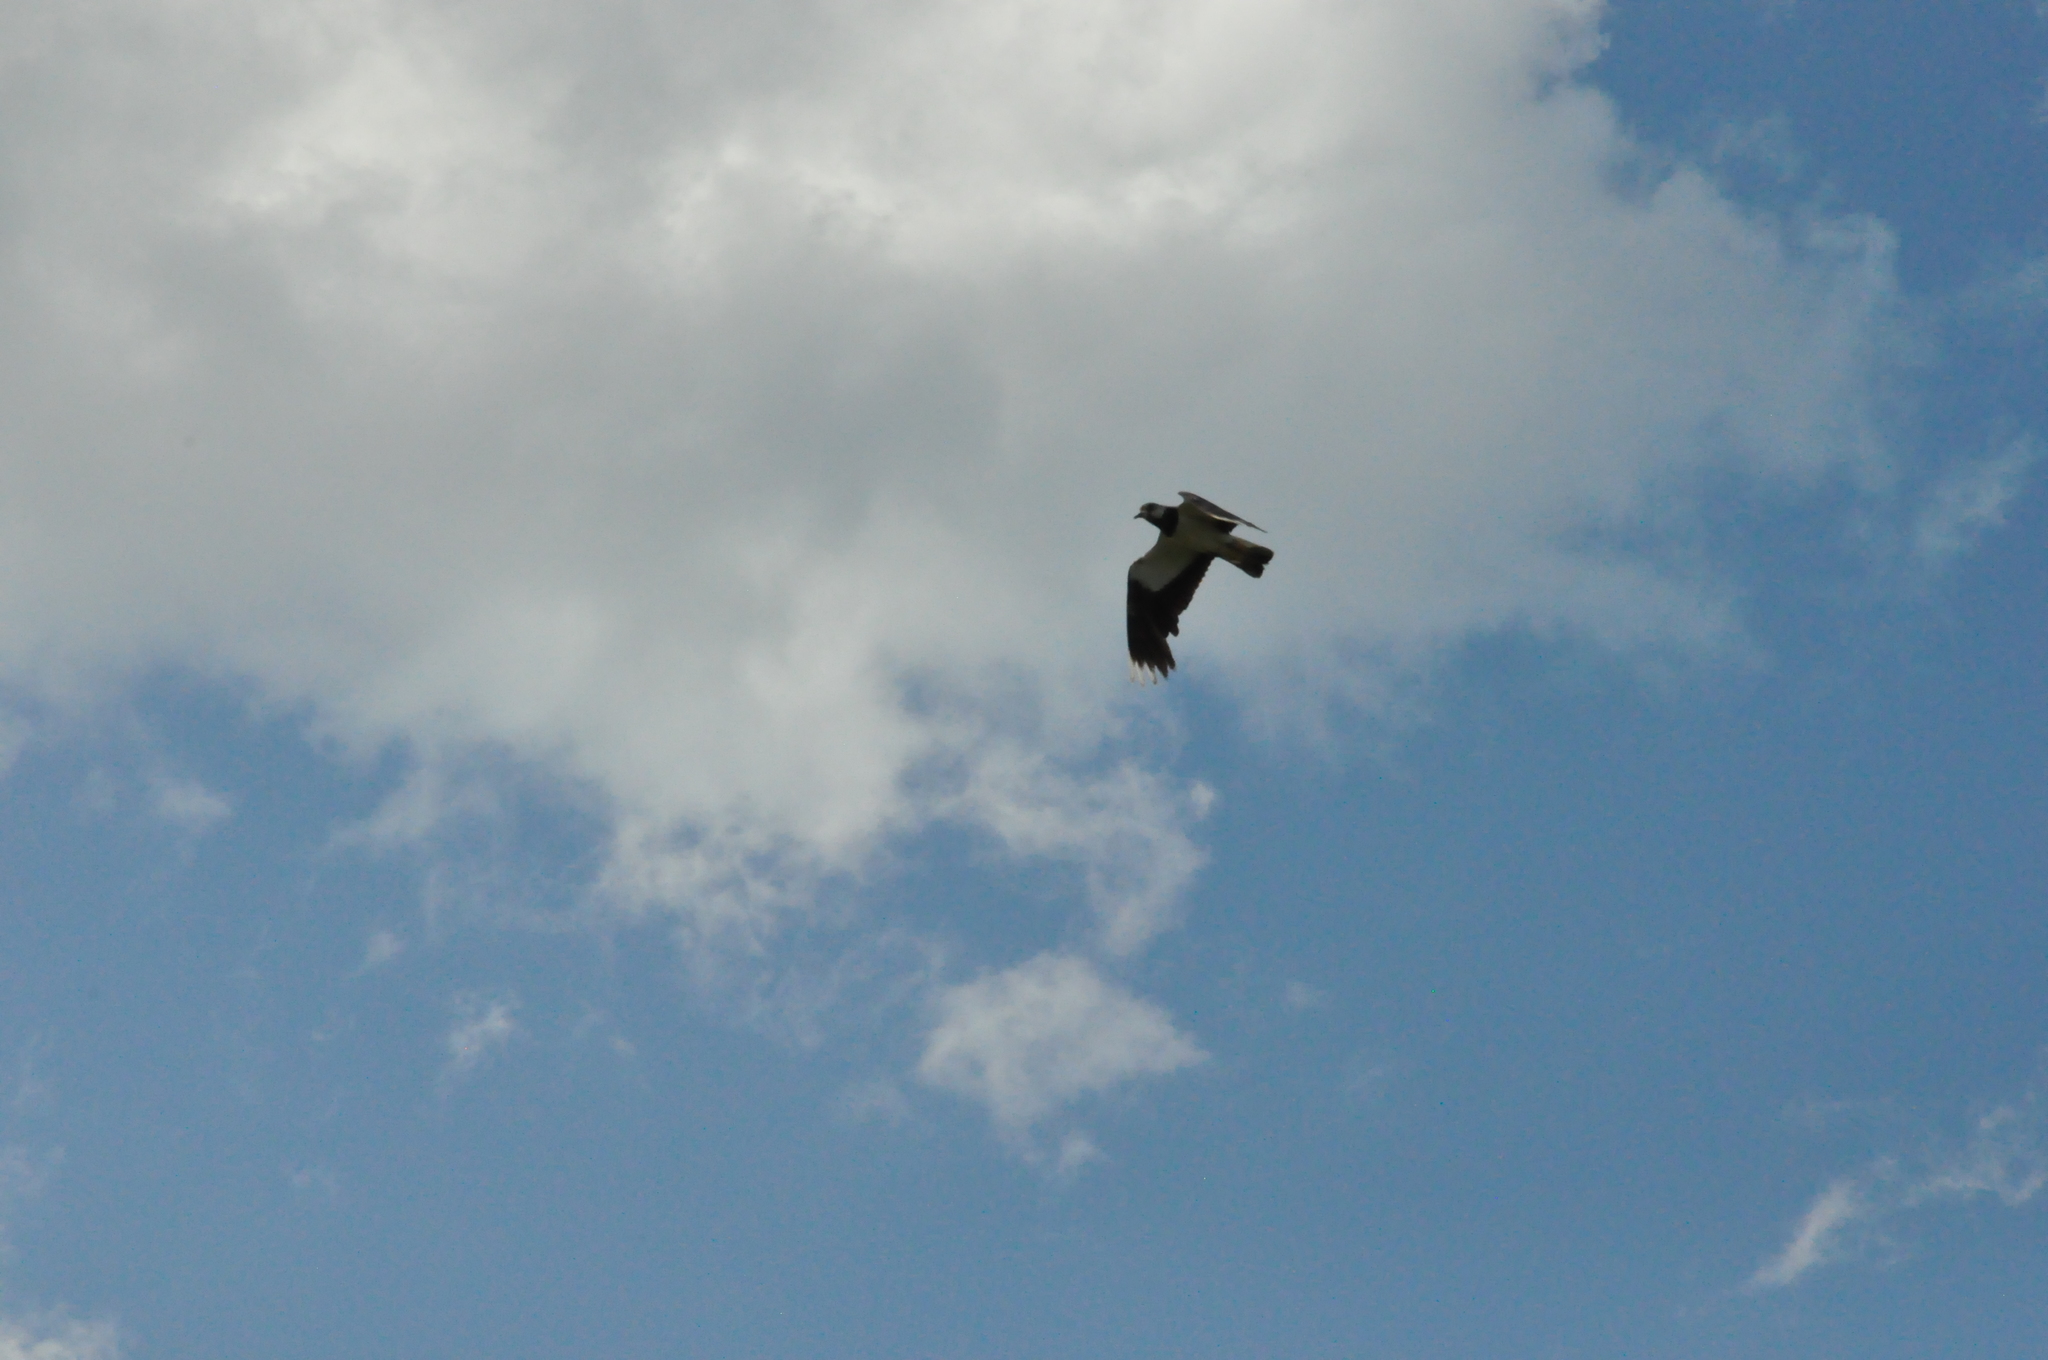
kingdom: Animalia
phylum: Chordata
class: Aves
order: Charadriiformes
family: Charadriidae
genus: Vanellus
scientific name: Vanellus vanellus
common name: Northern lapwing
